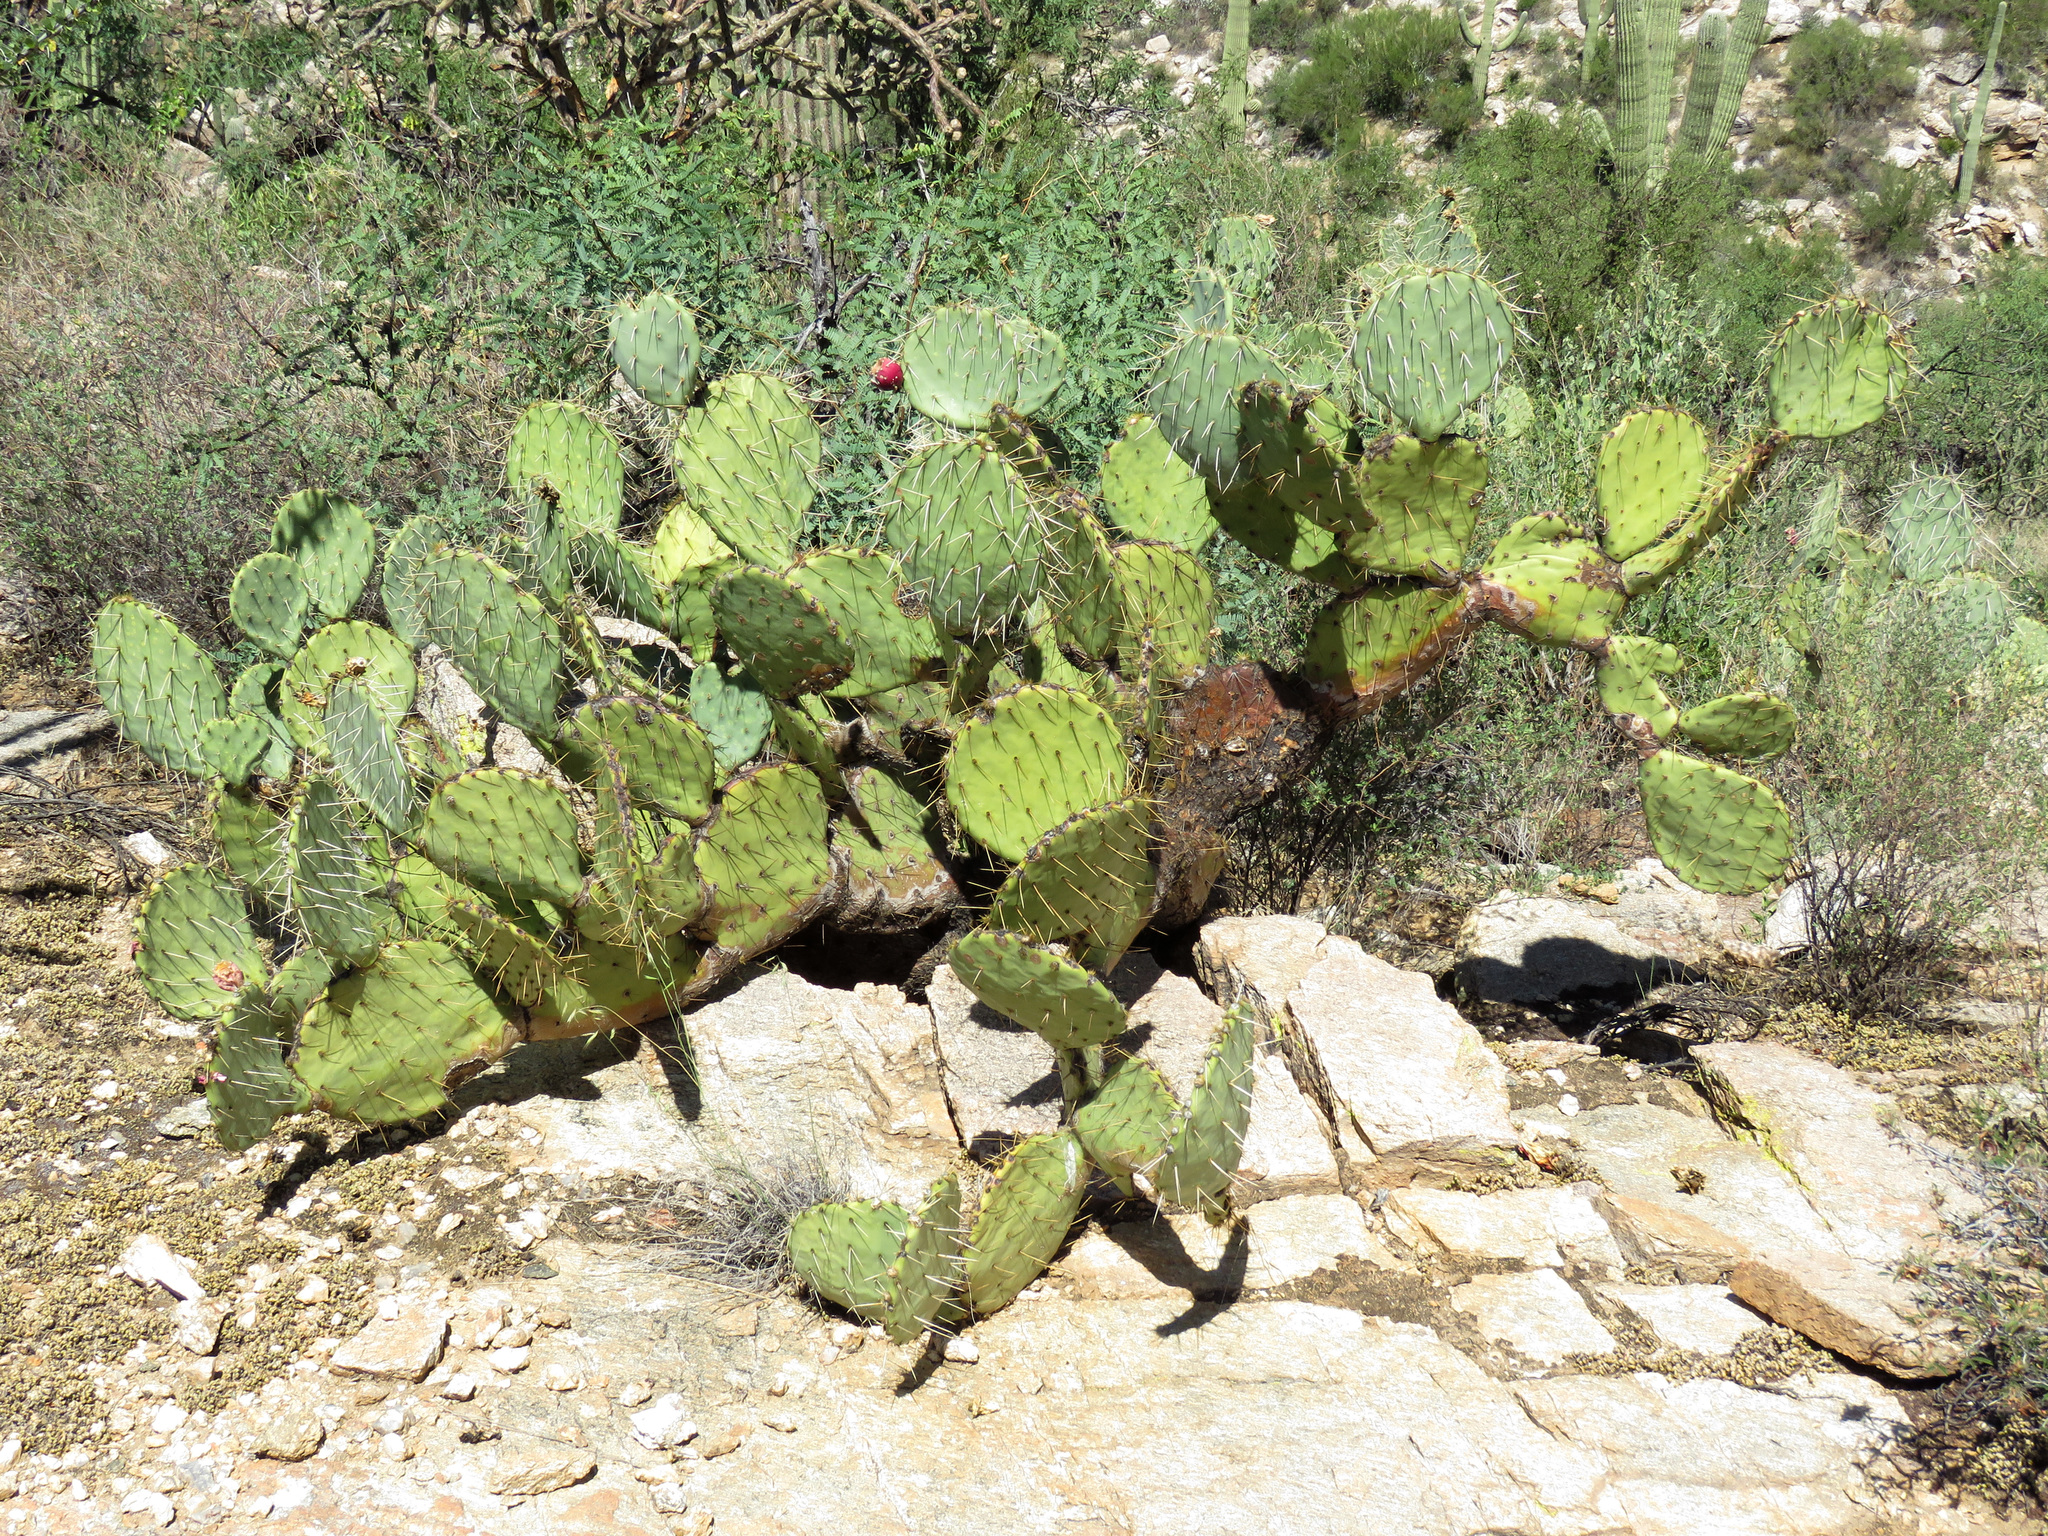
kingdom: Plantae
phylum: Tracheophyta
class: Magnoliopsida
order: Caryophyllales
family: Cactaceae
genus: Opuntia
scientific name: Opuntia engelmannii
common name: Cactus-apple
